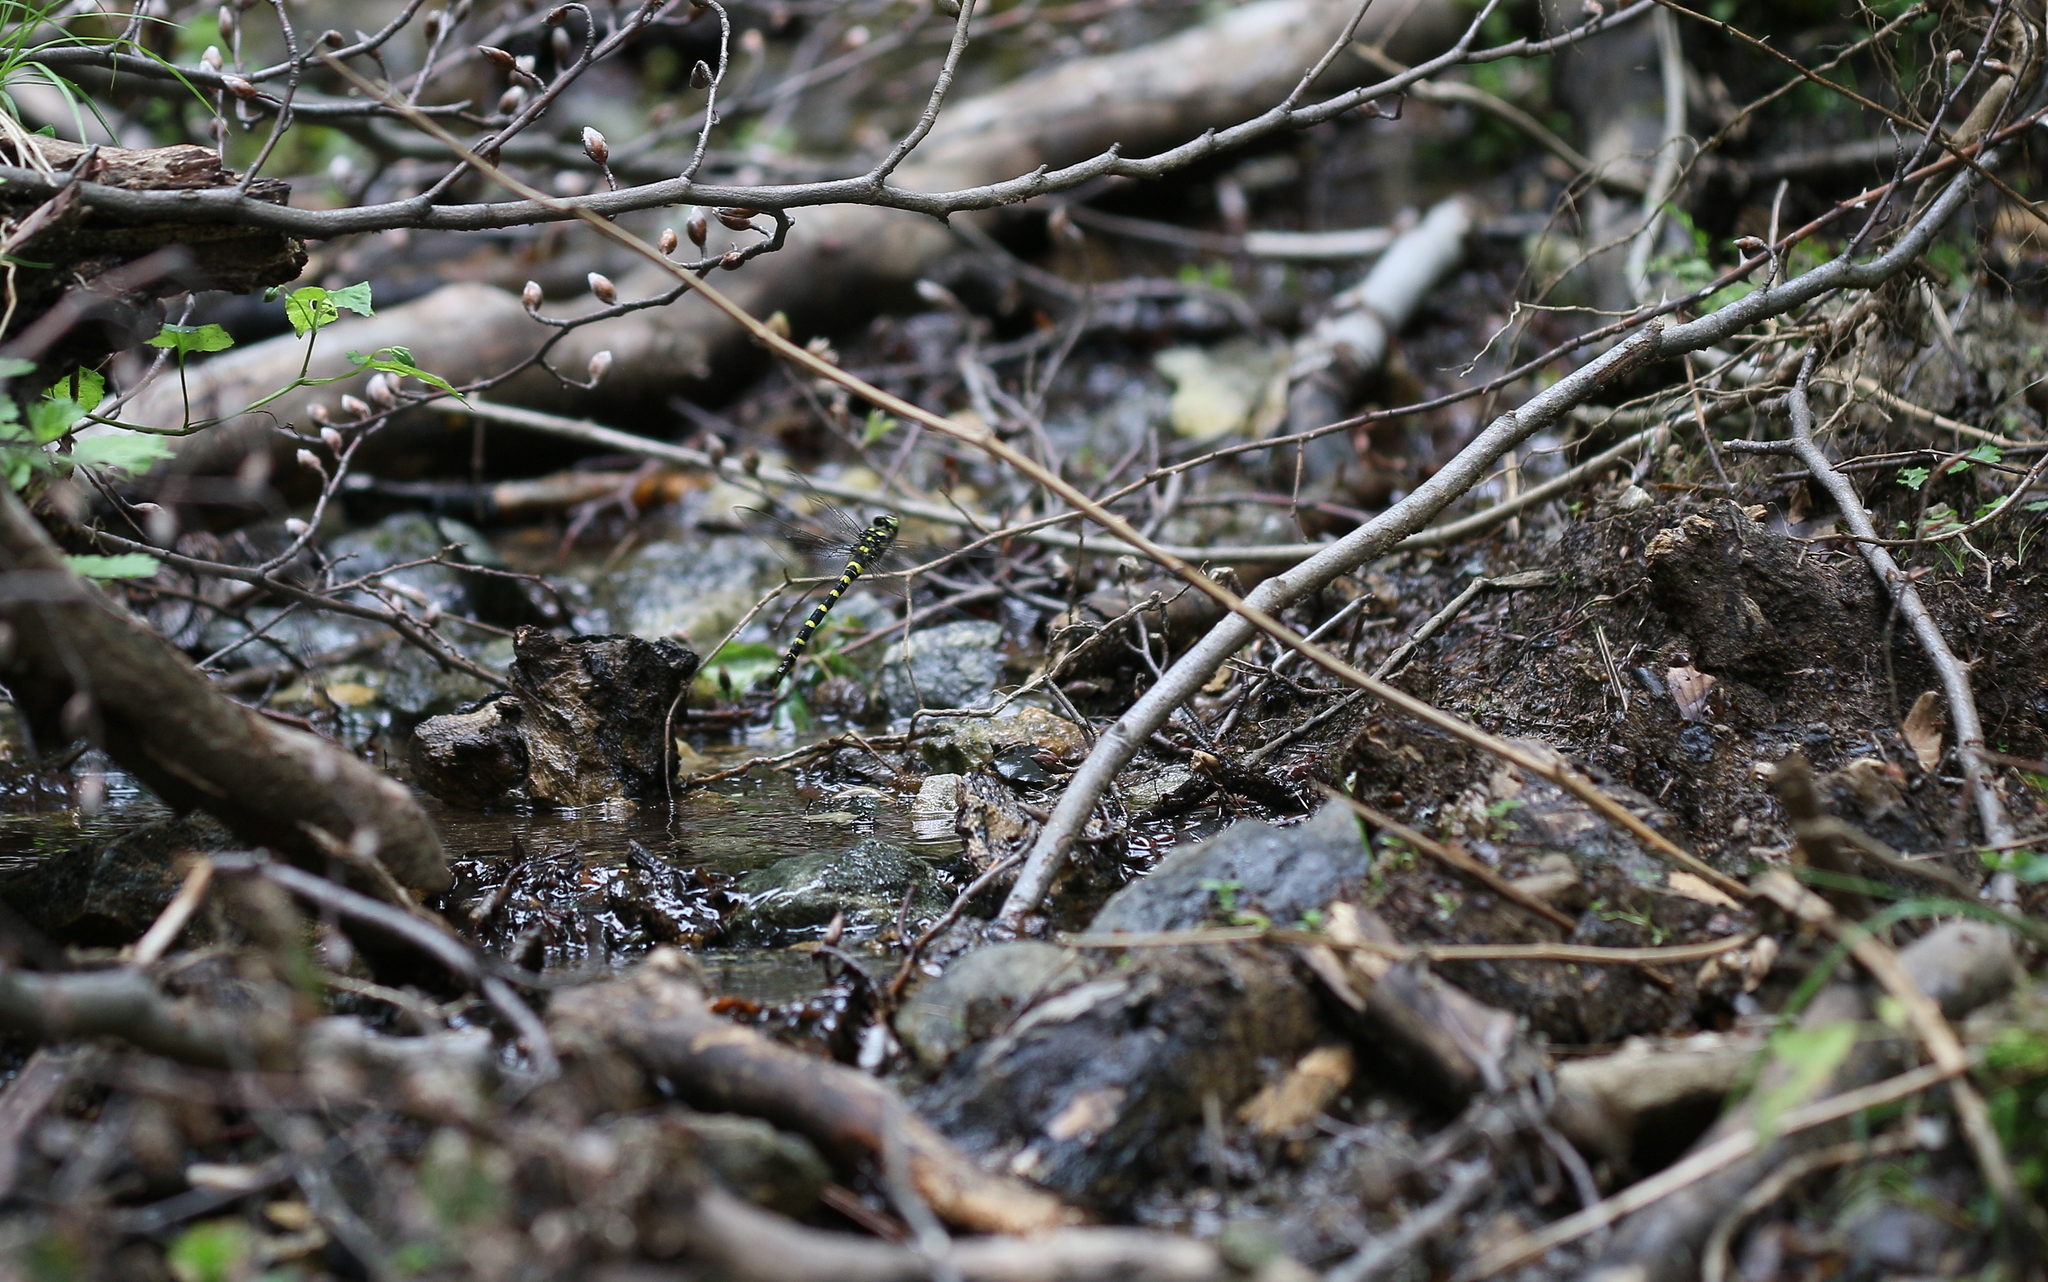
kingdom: Animalia
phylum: Arthropoda
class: Insecta
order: Odonata
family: Cordulegastridae
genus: Cordulegaster
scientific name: Cordulegaster bidentata
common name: Sombre goldenring
